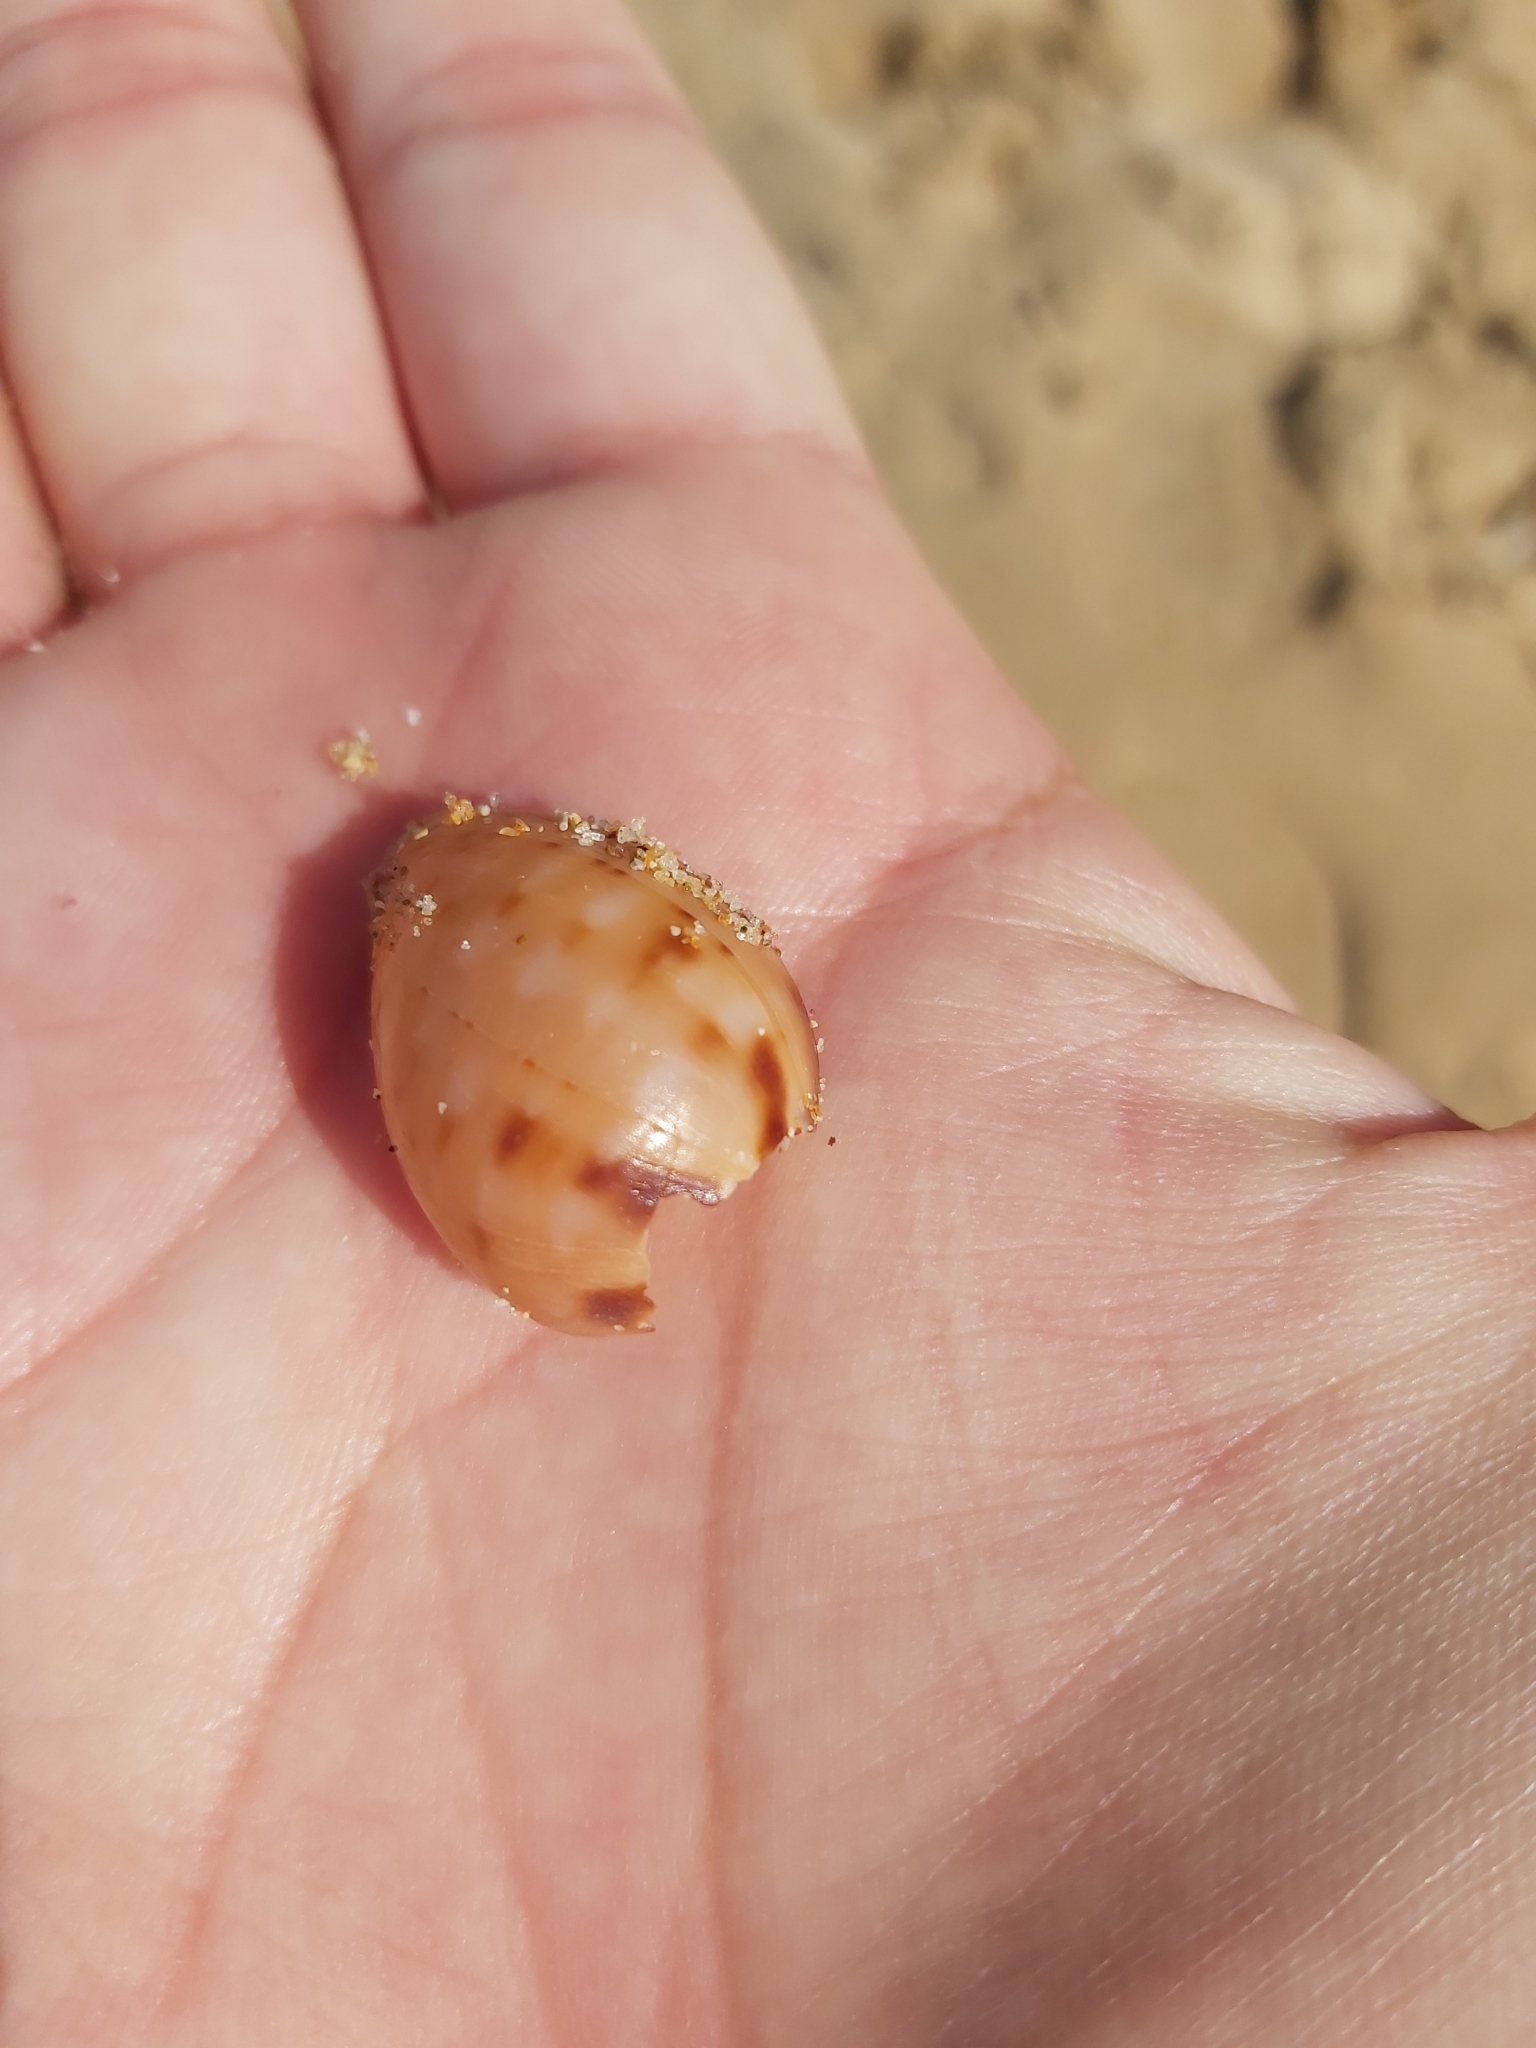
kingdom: Animalia
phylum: Mollusca
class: Gastropoda
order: Littorinimorpha
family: Cassidae
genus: Semicassis
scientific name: Semicassis labiata
